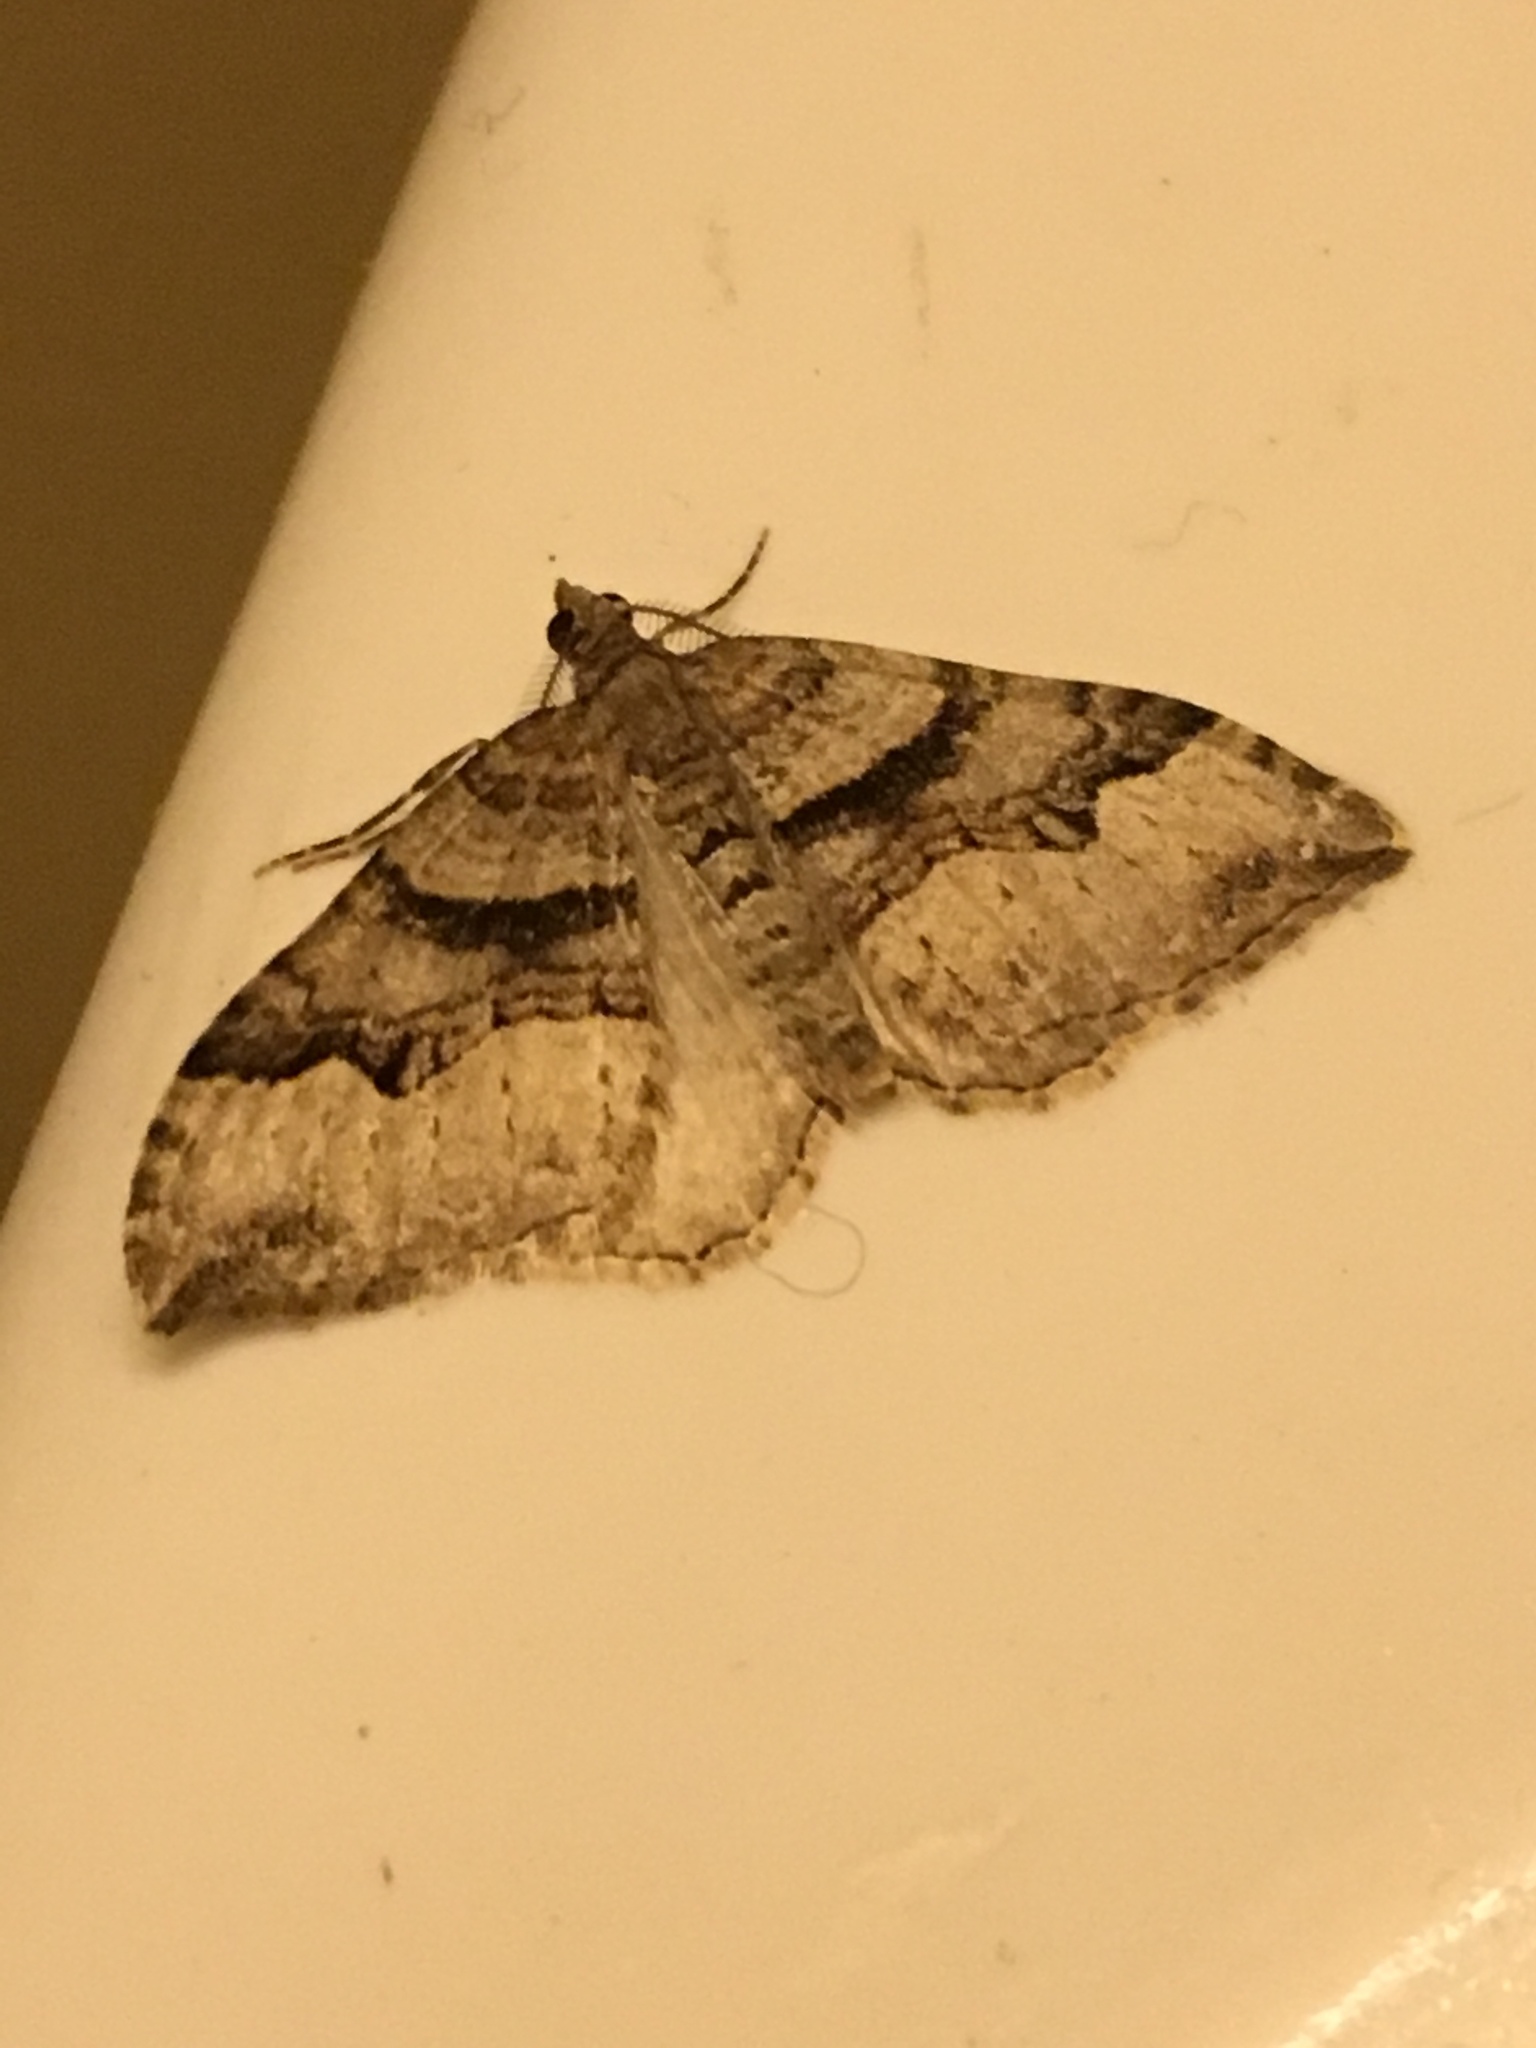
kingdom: Animalia
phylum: Arthropoda
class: Insecta
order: Lepidoptera
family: Geometridae
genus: Xanthorhoe
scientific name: Xanthorhoe defensaria
